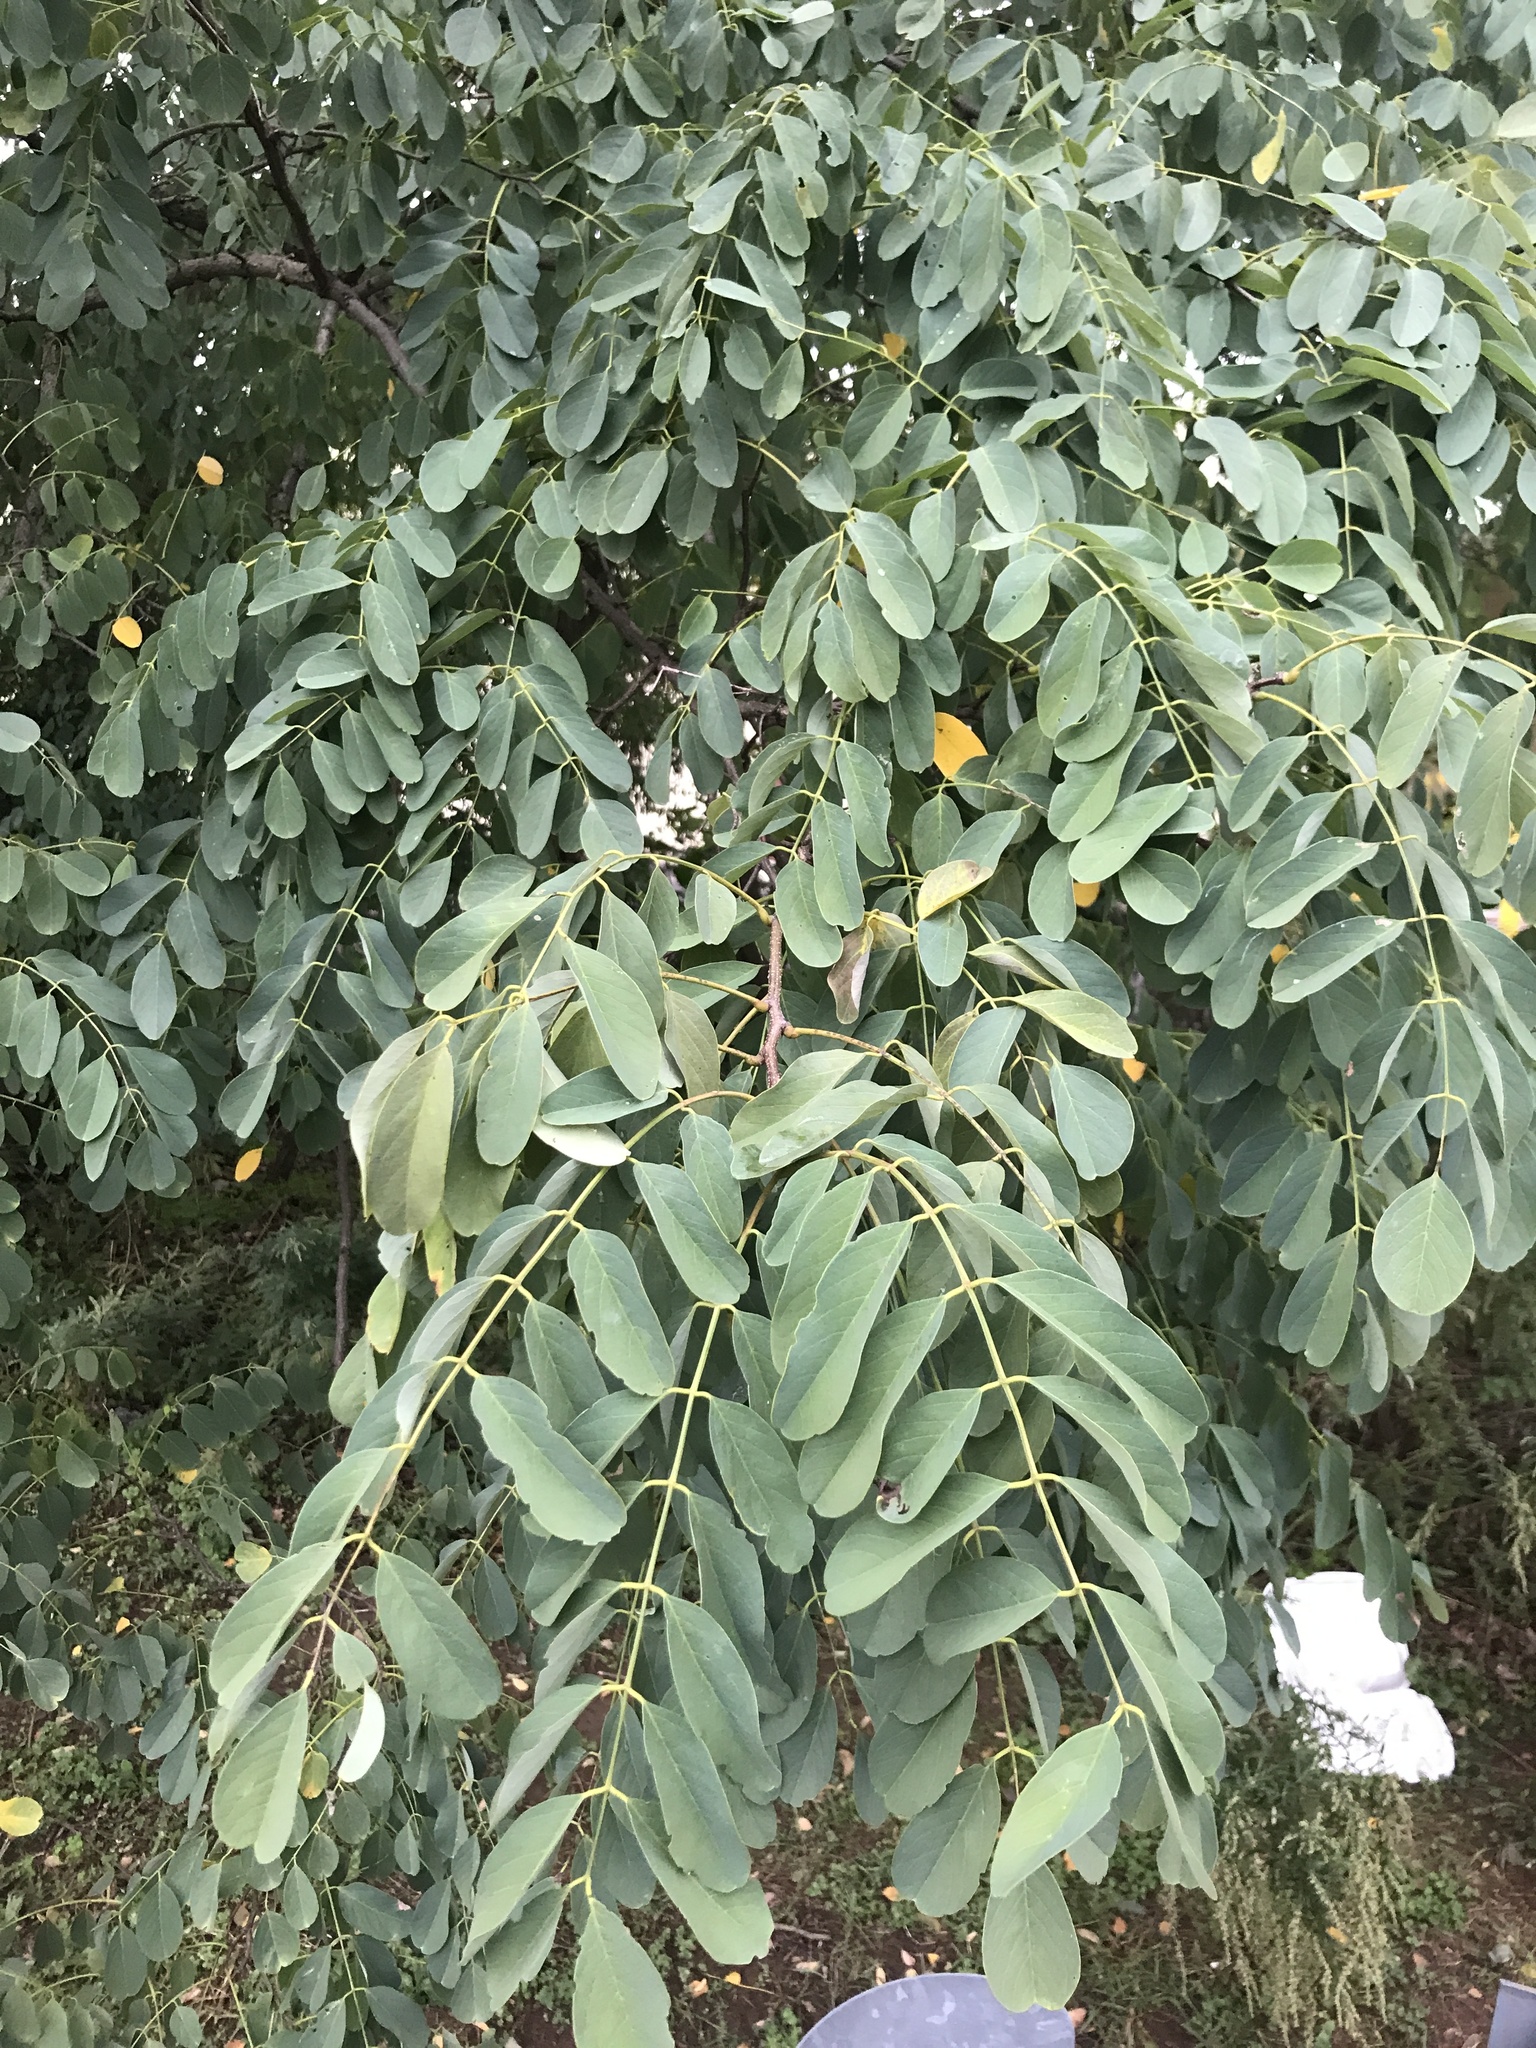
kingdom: Plantae
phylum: Tracheophyta
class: Magnoliopsida
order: Fabales
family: Fabaceae
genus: Robinia
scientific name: Robinia pseudoacacia
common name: Black locust
